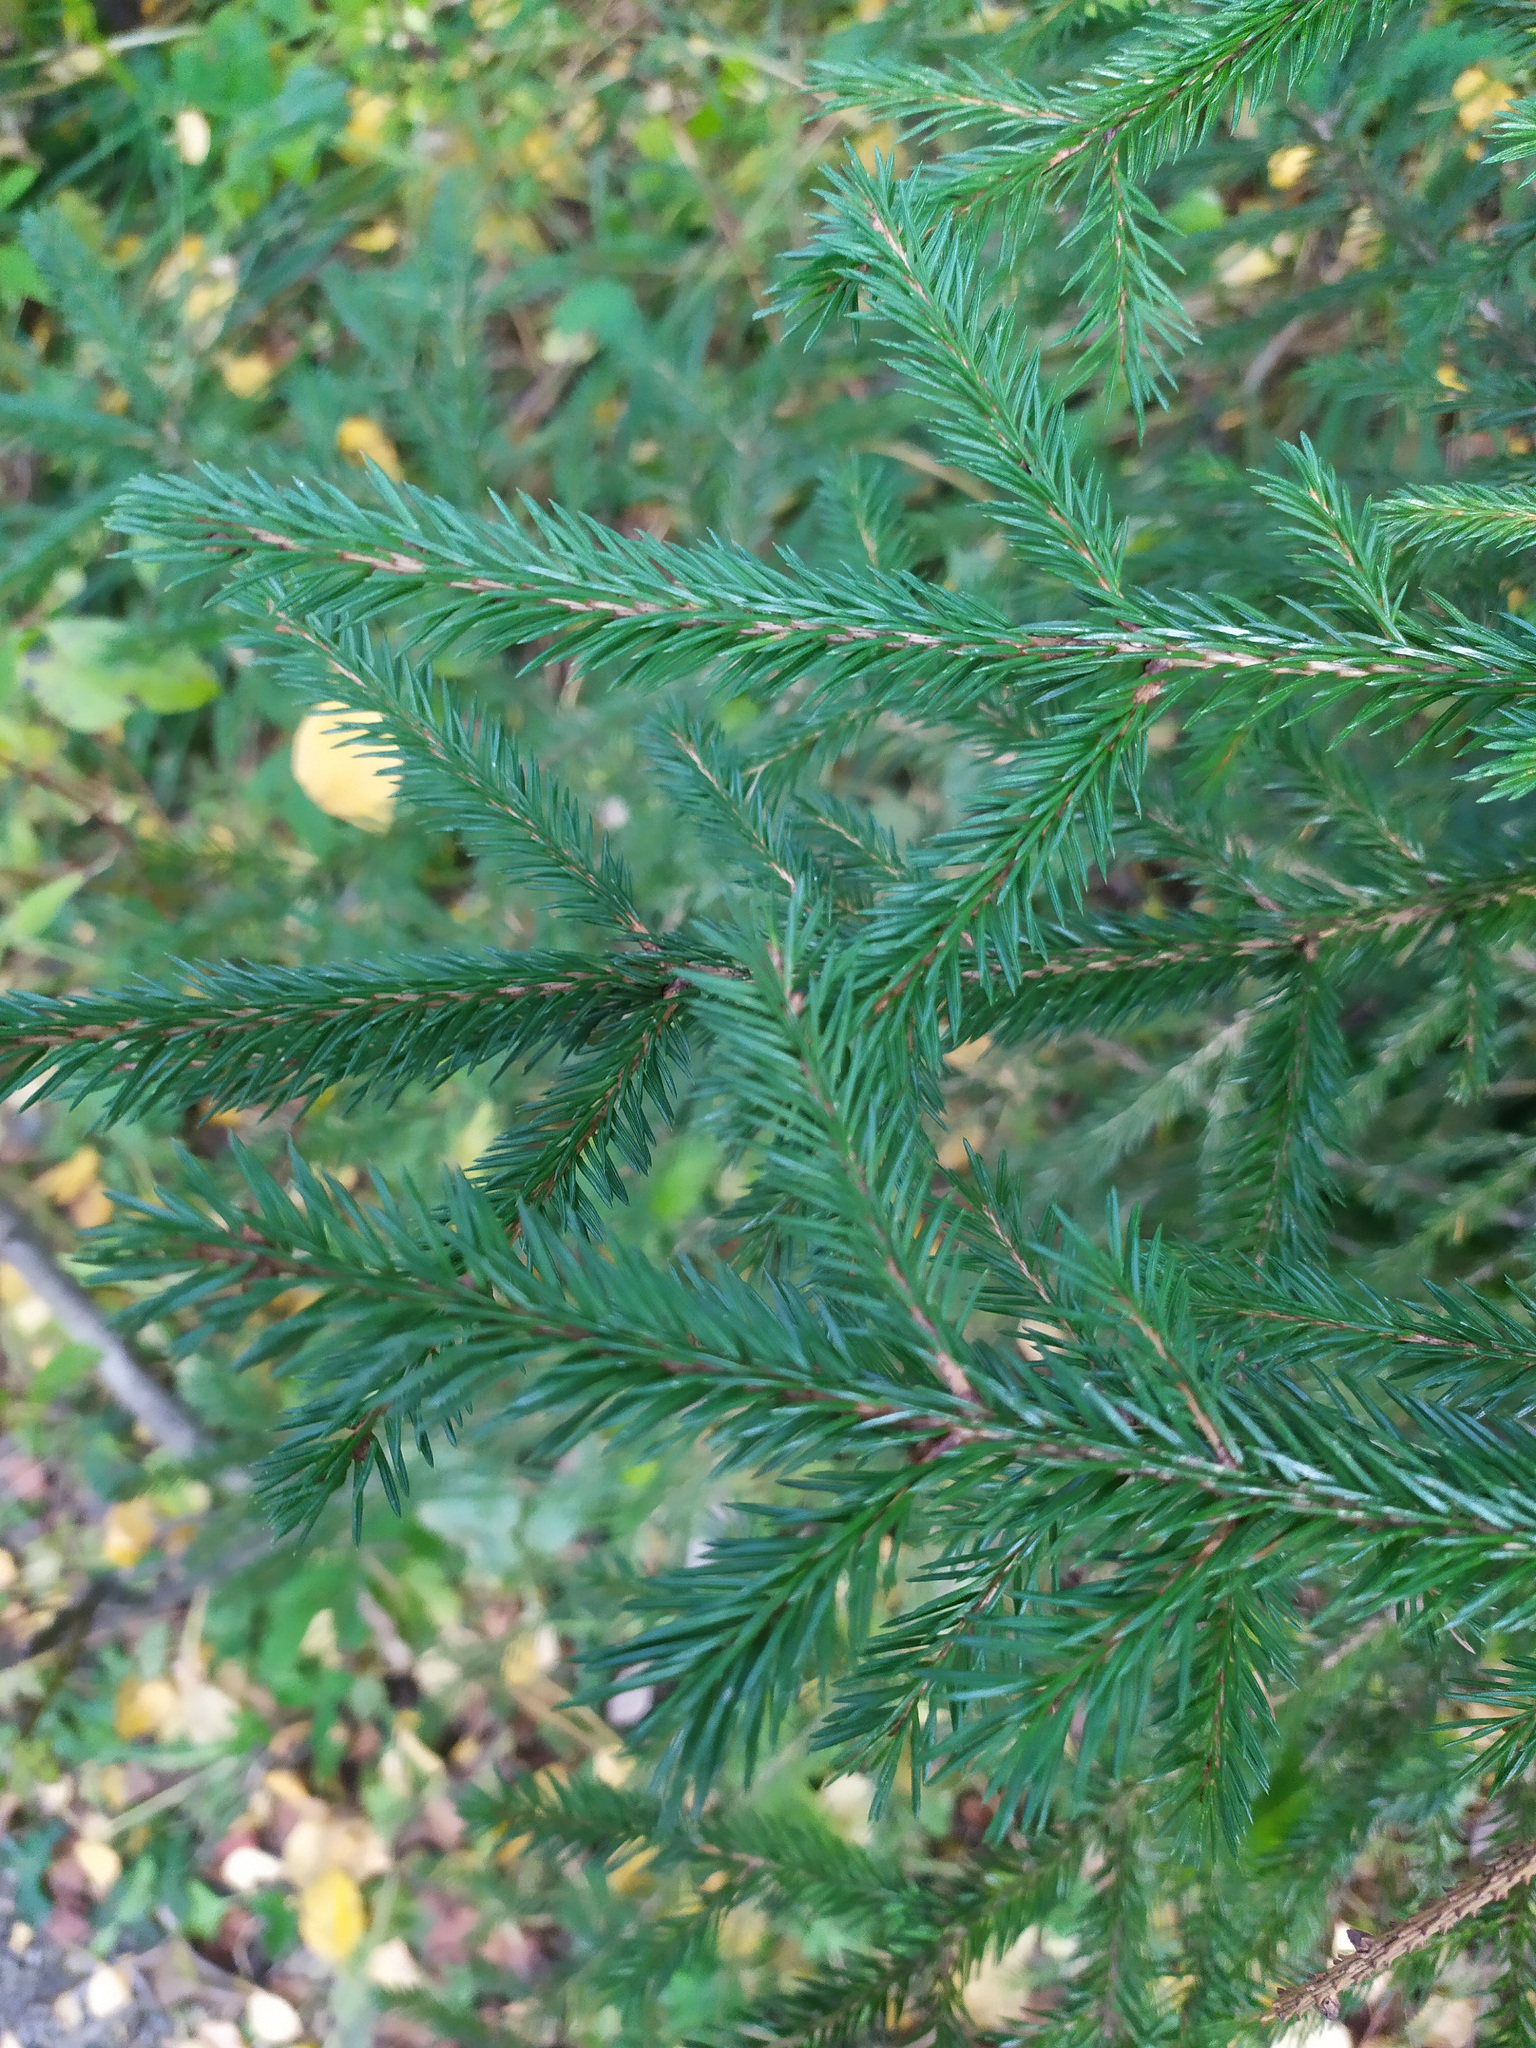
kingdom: Plantae
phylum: Tracheophyta
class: Pinopsida
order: Pinales
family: Pinaceae
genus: Picea
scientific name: Picea
